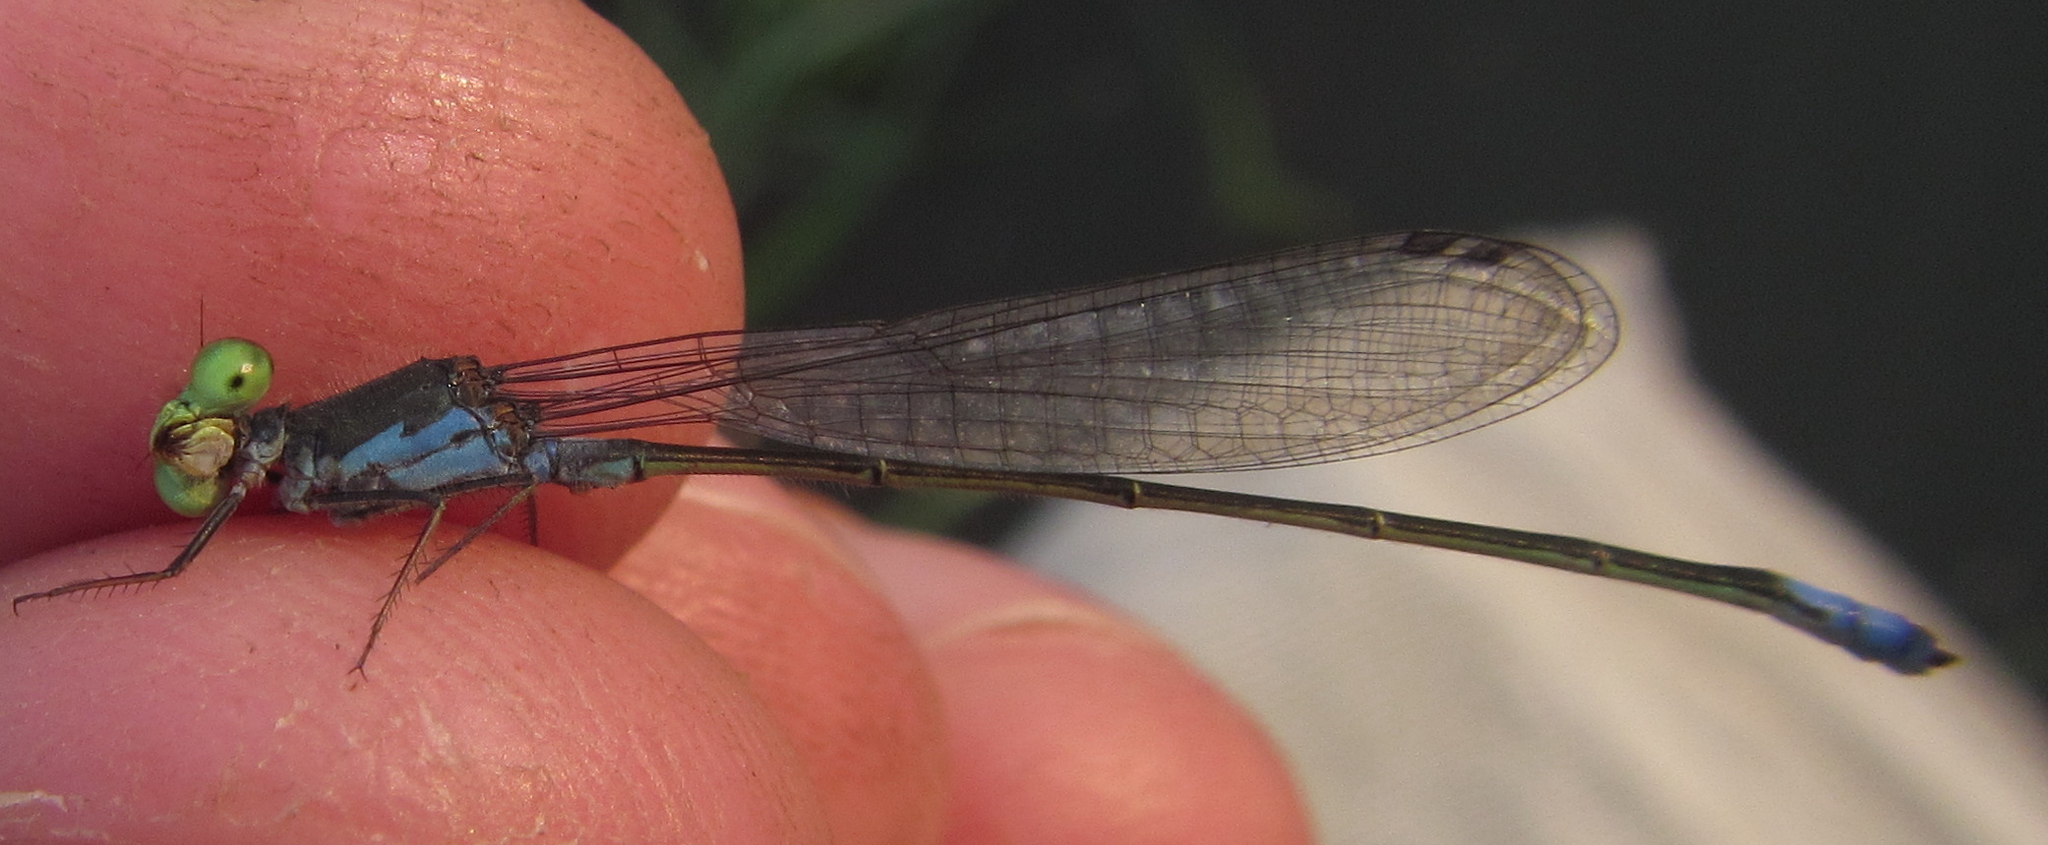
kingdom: Animalia
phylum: Arthropoda
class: Insecta
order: Odonata
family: Coenagrionidae
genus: Pseudagrion
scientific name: Pseudagrion deningi
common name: Dening's sprite
